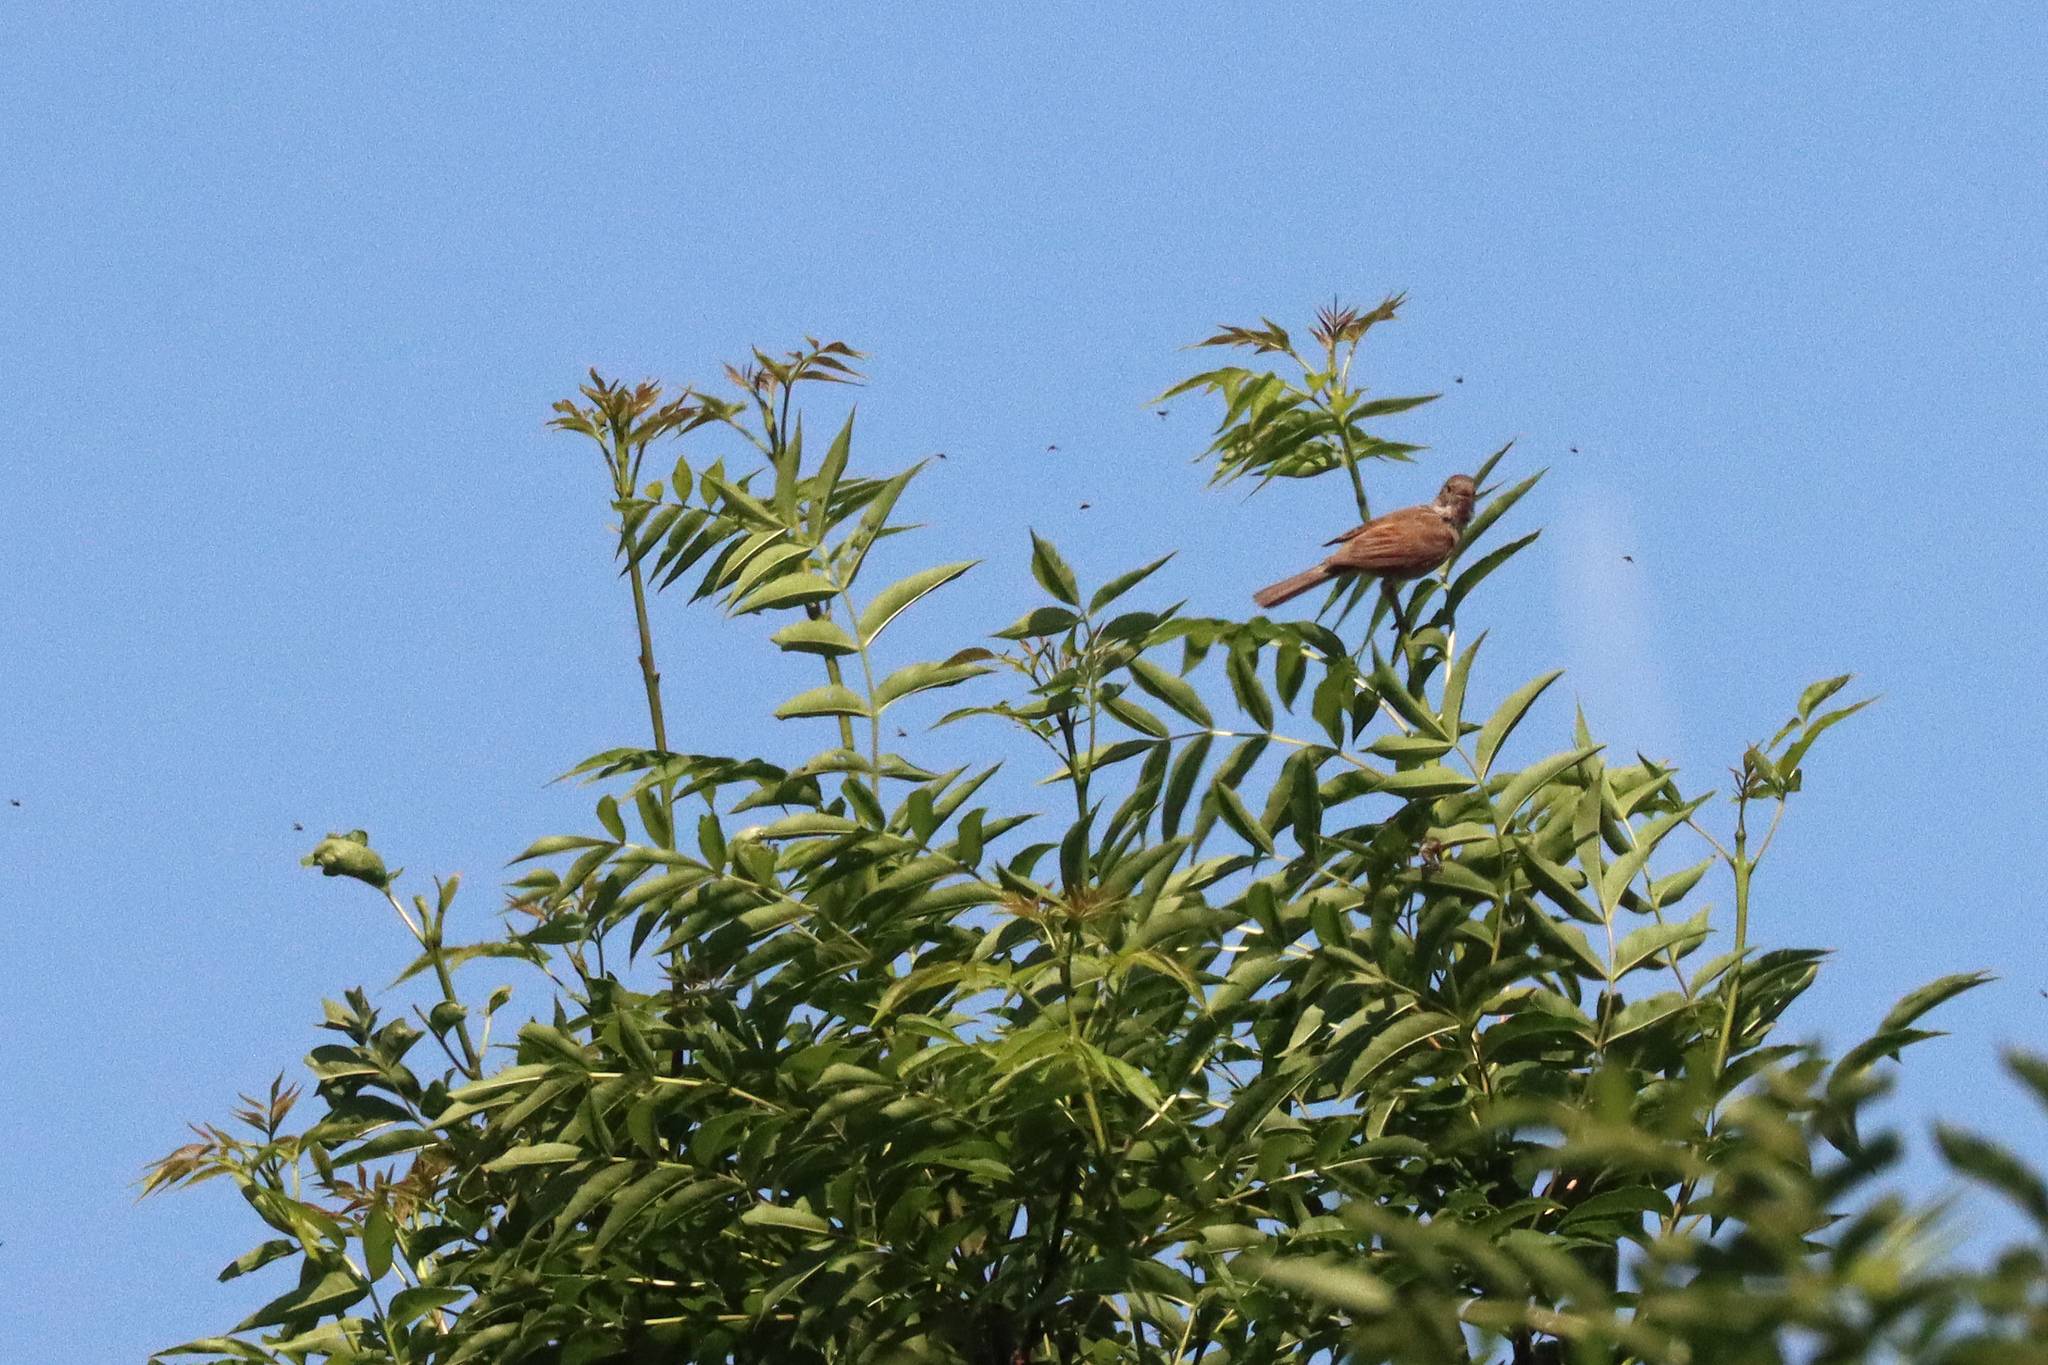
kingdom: Animalia
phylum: Chordata
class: Aves
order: Passeriformes
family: Sylviidae
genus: Sylvia
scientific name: Sylvia communis
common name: Common whitethroat
